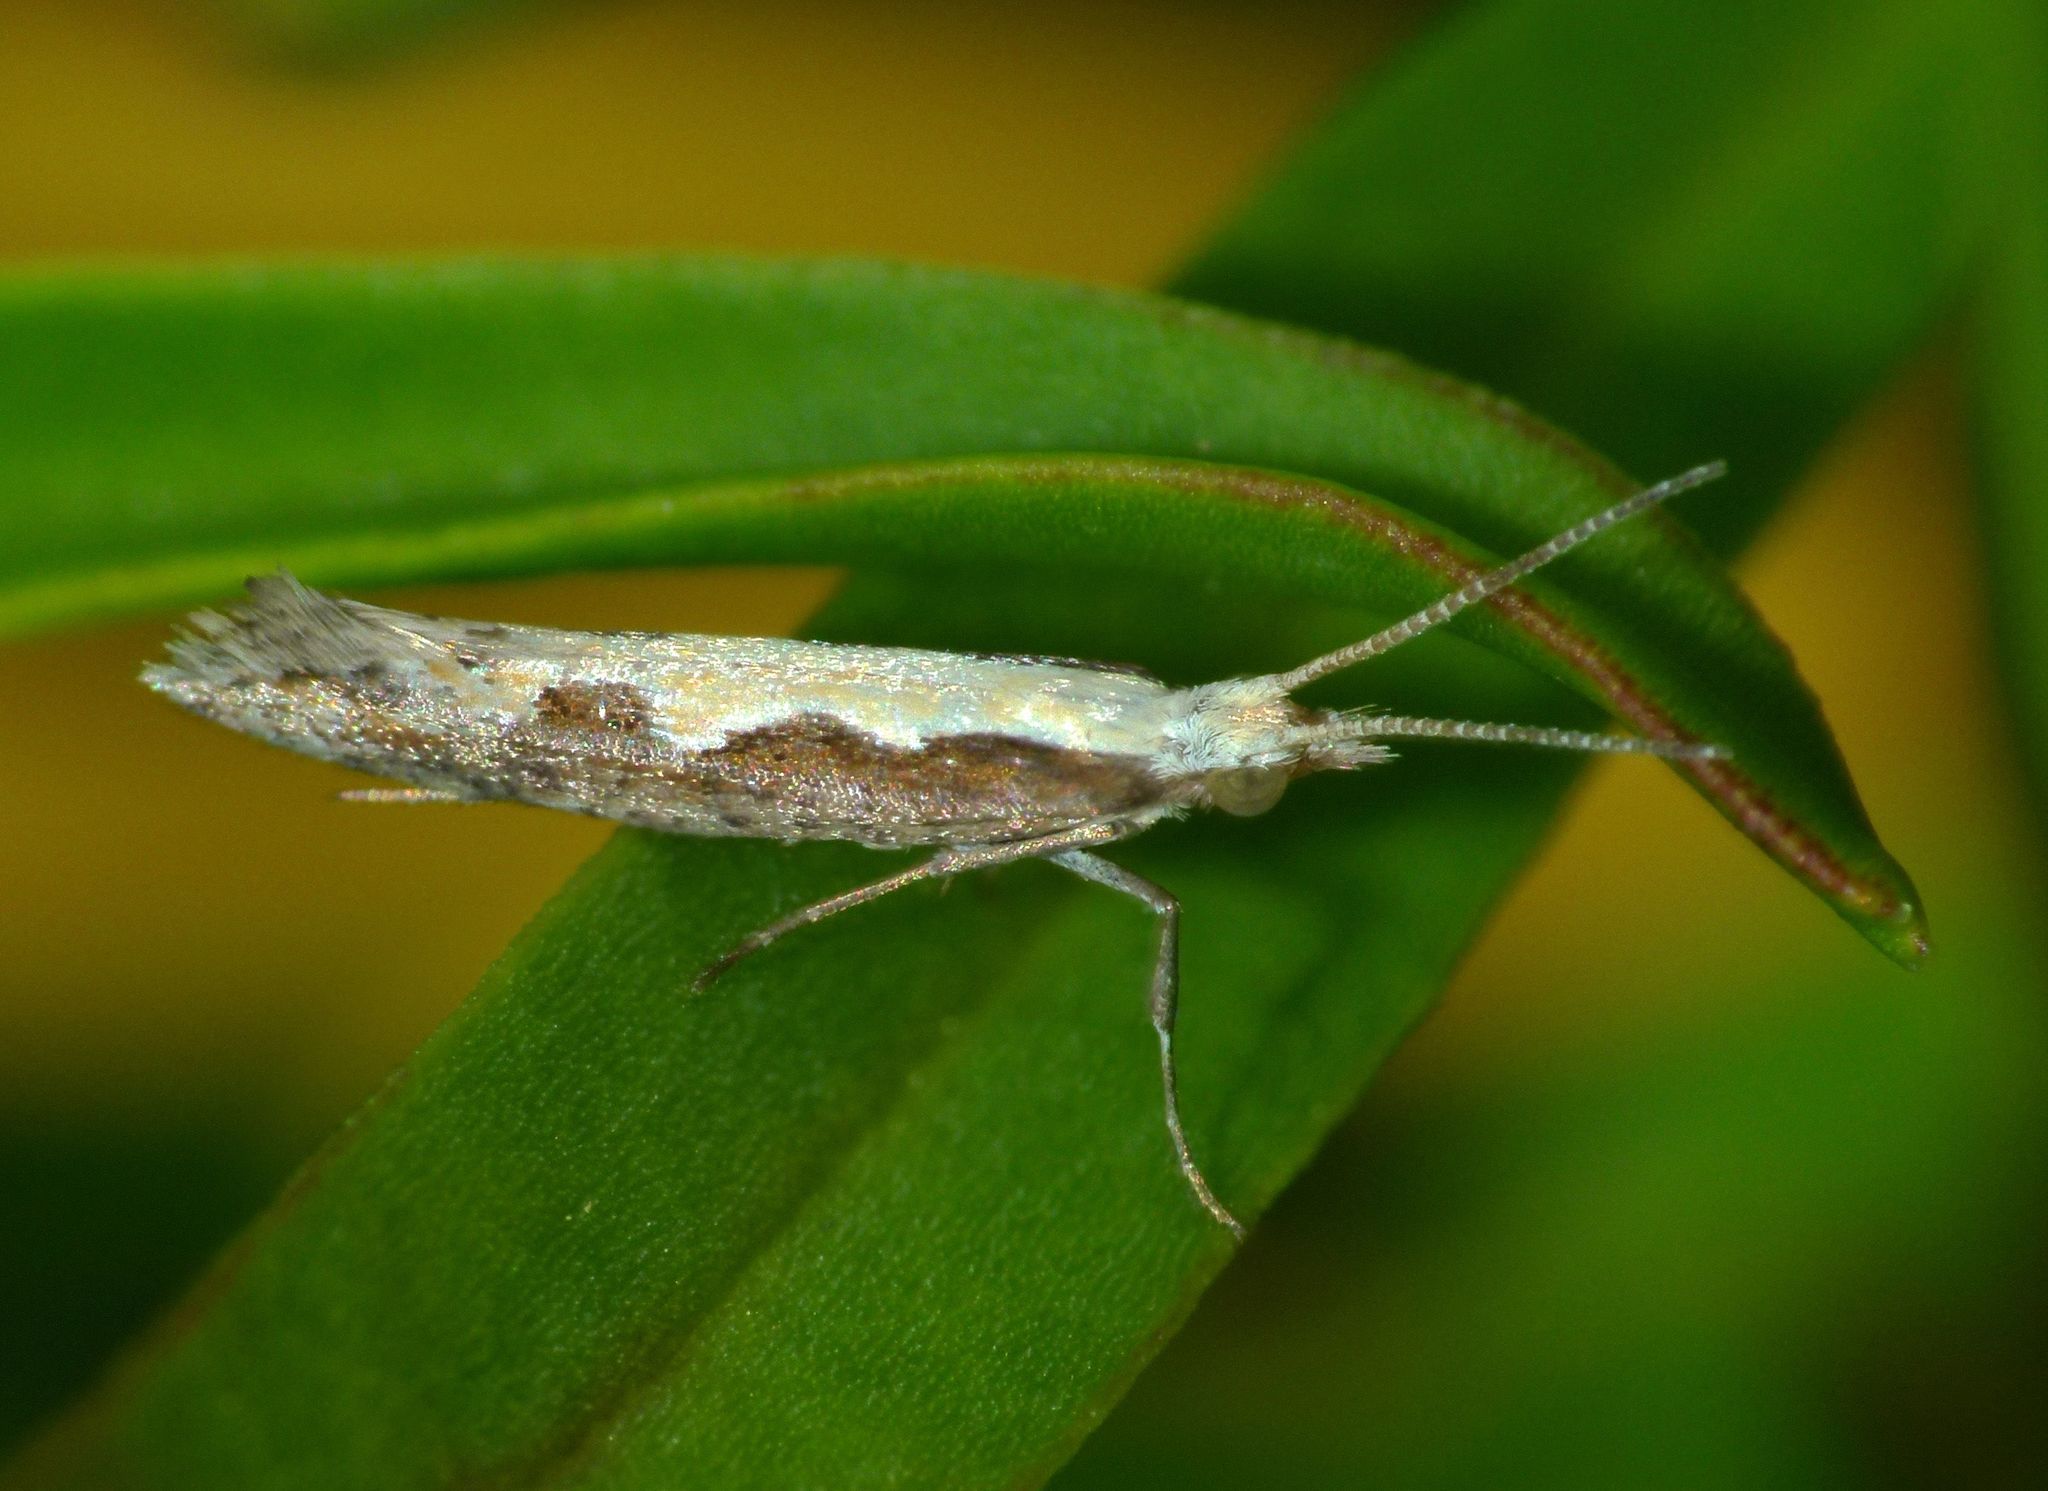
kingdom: Animalia
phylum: Arthropoda
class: Insecta
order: Lepidoptera
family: Plutellidae
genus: Plutella
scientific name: Plutella xylostella
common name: Diamond-back moth
